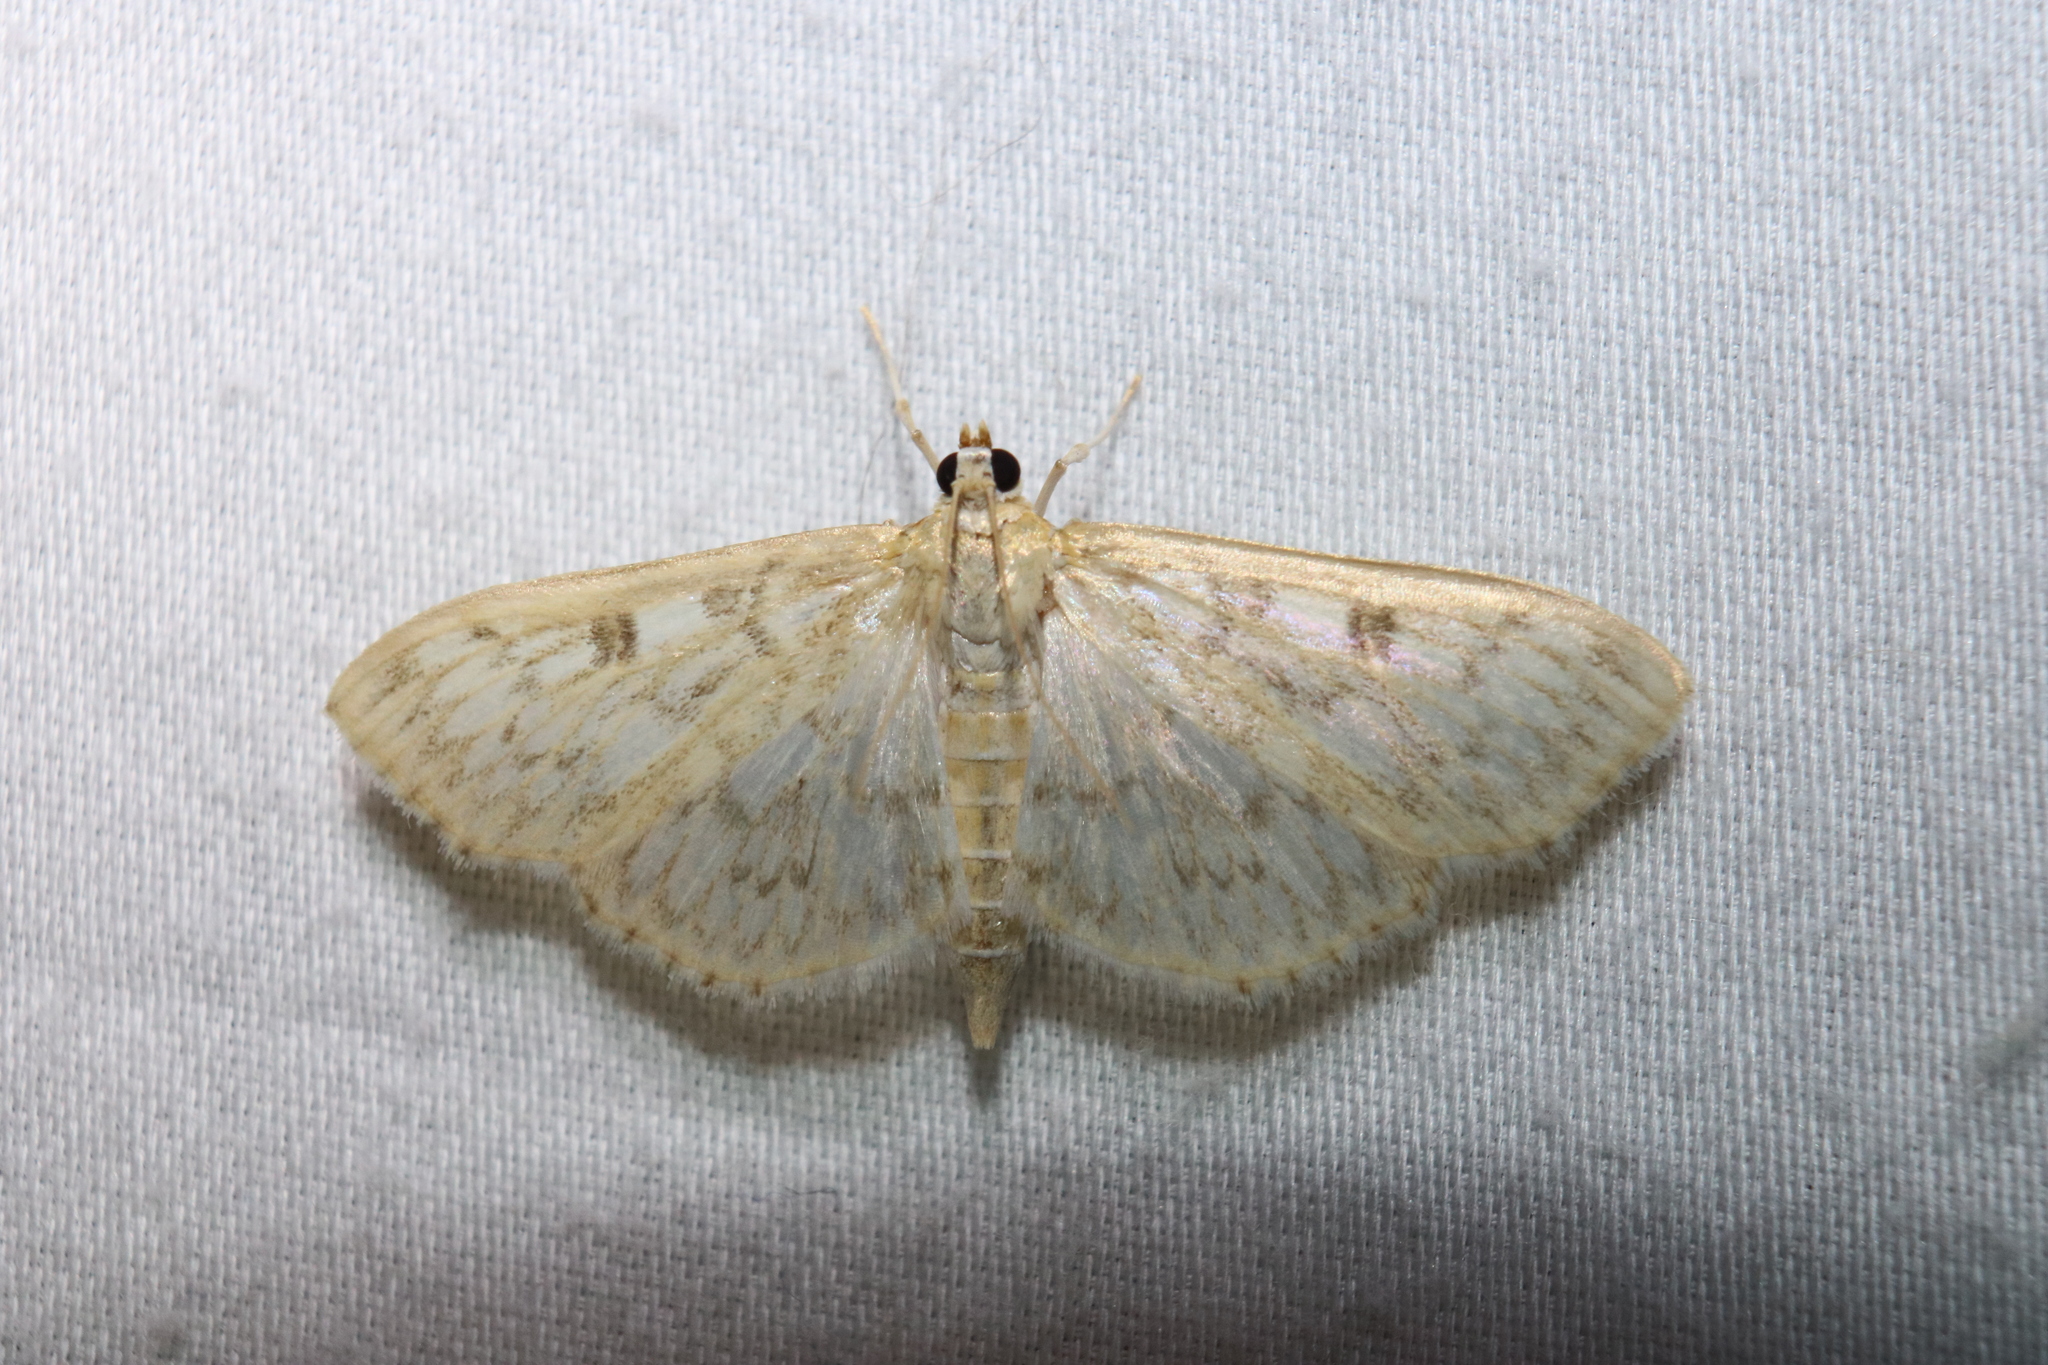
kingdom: Animalia
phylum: Arthropoda
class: Insecta
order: Lepidoptera
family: Crambidae
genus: Herpetogramma
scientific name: Herpetogramma aquilonalis
